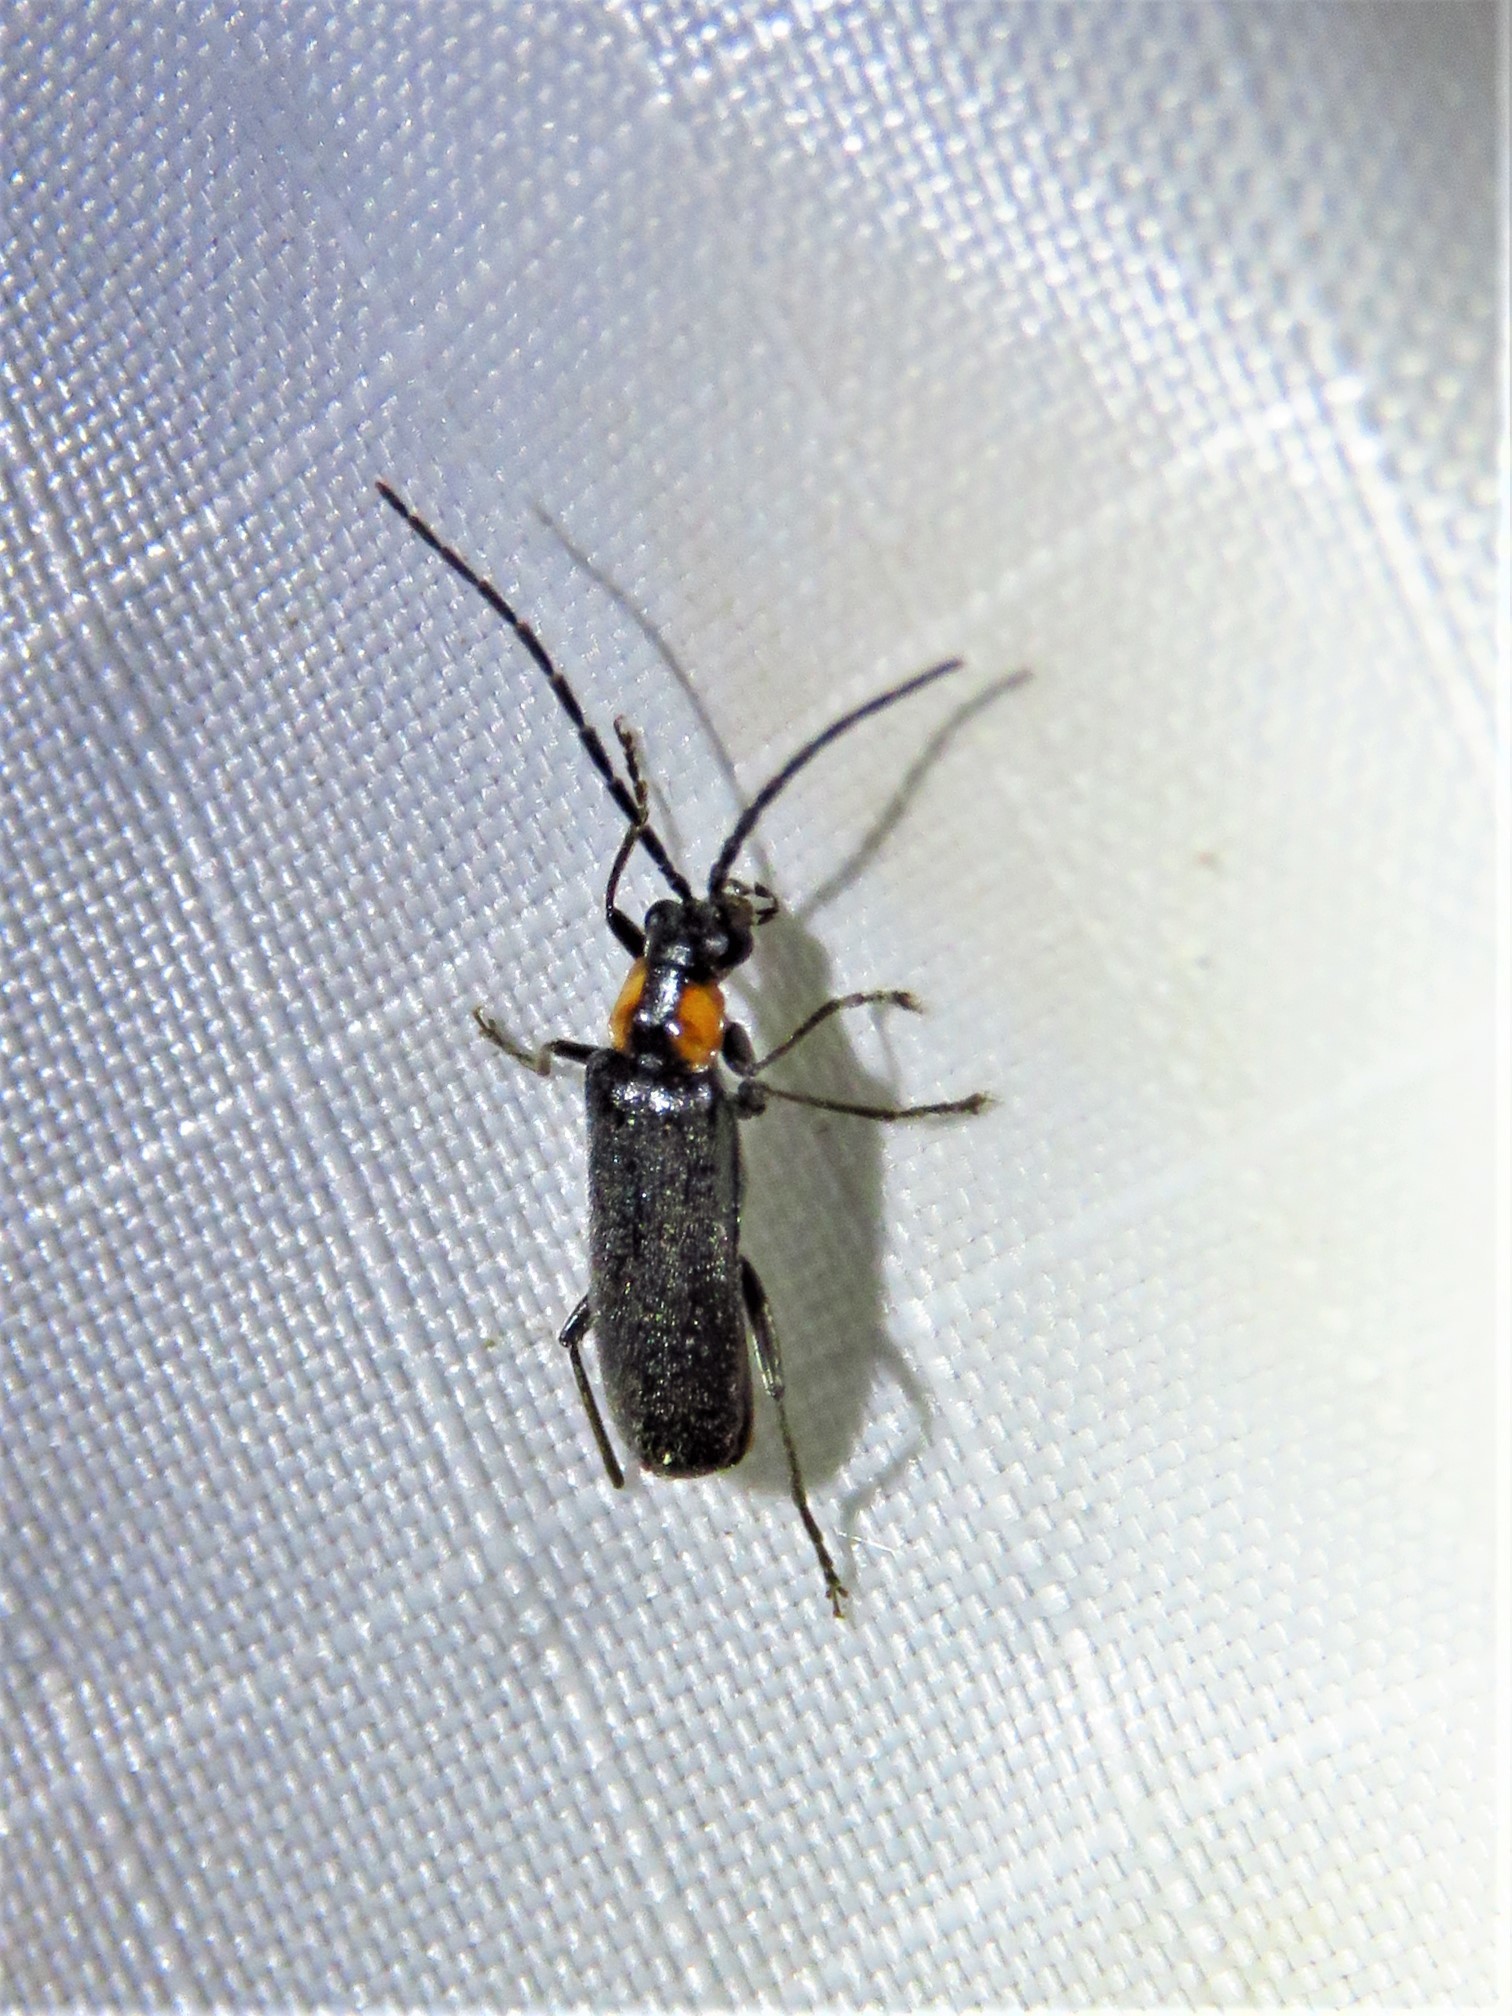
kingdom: Animalia
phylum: Arthropoda
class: Insecta
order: Coleoptera
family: Cantharidae
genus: Rhagonycha
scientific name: Rhagonycha lineola
